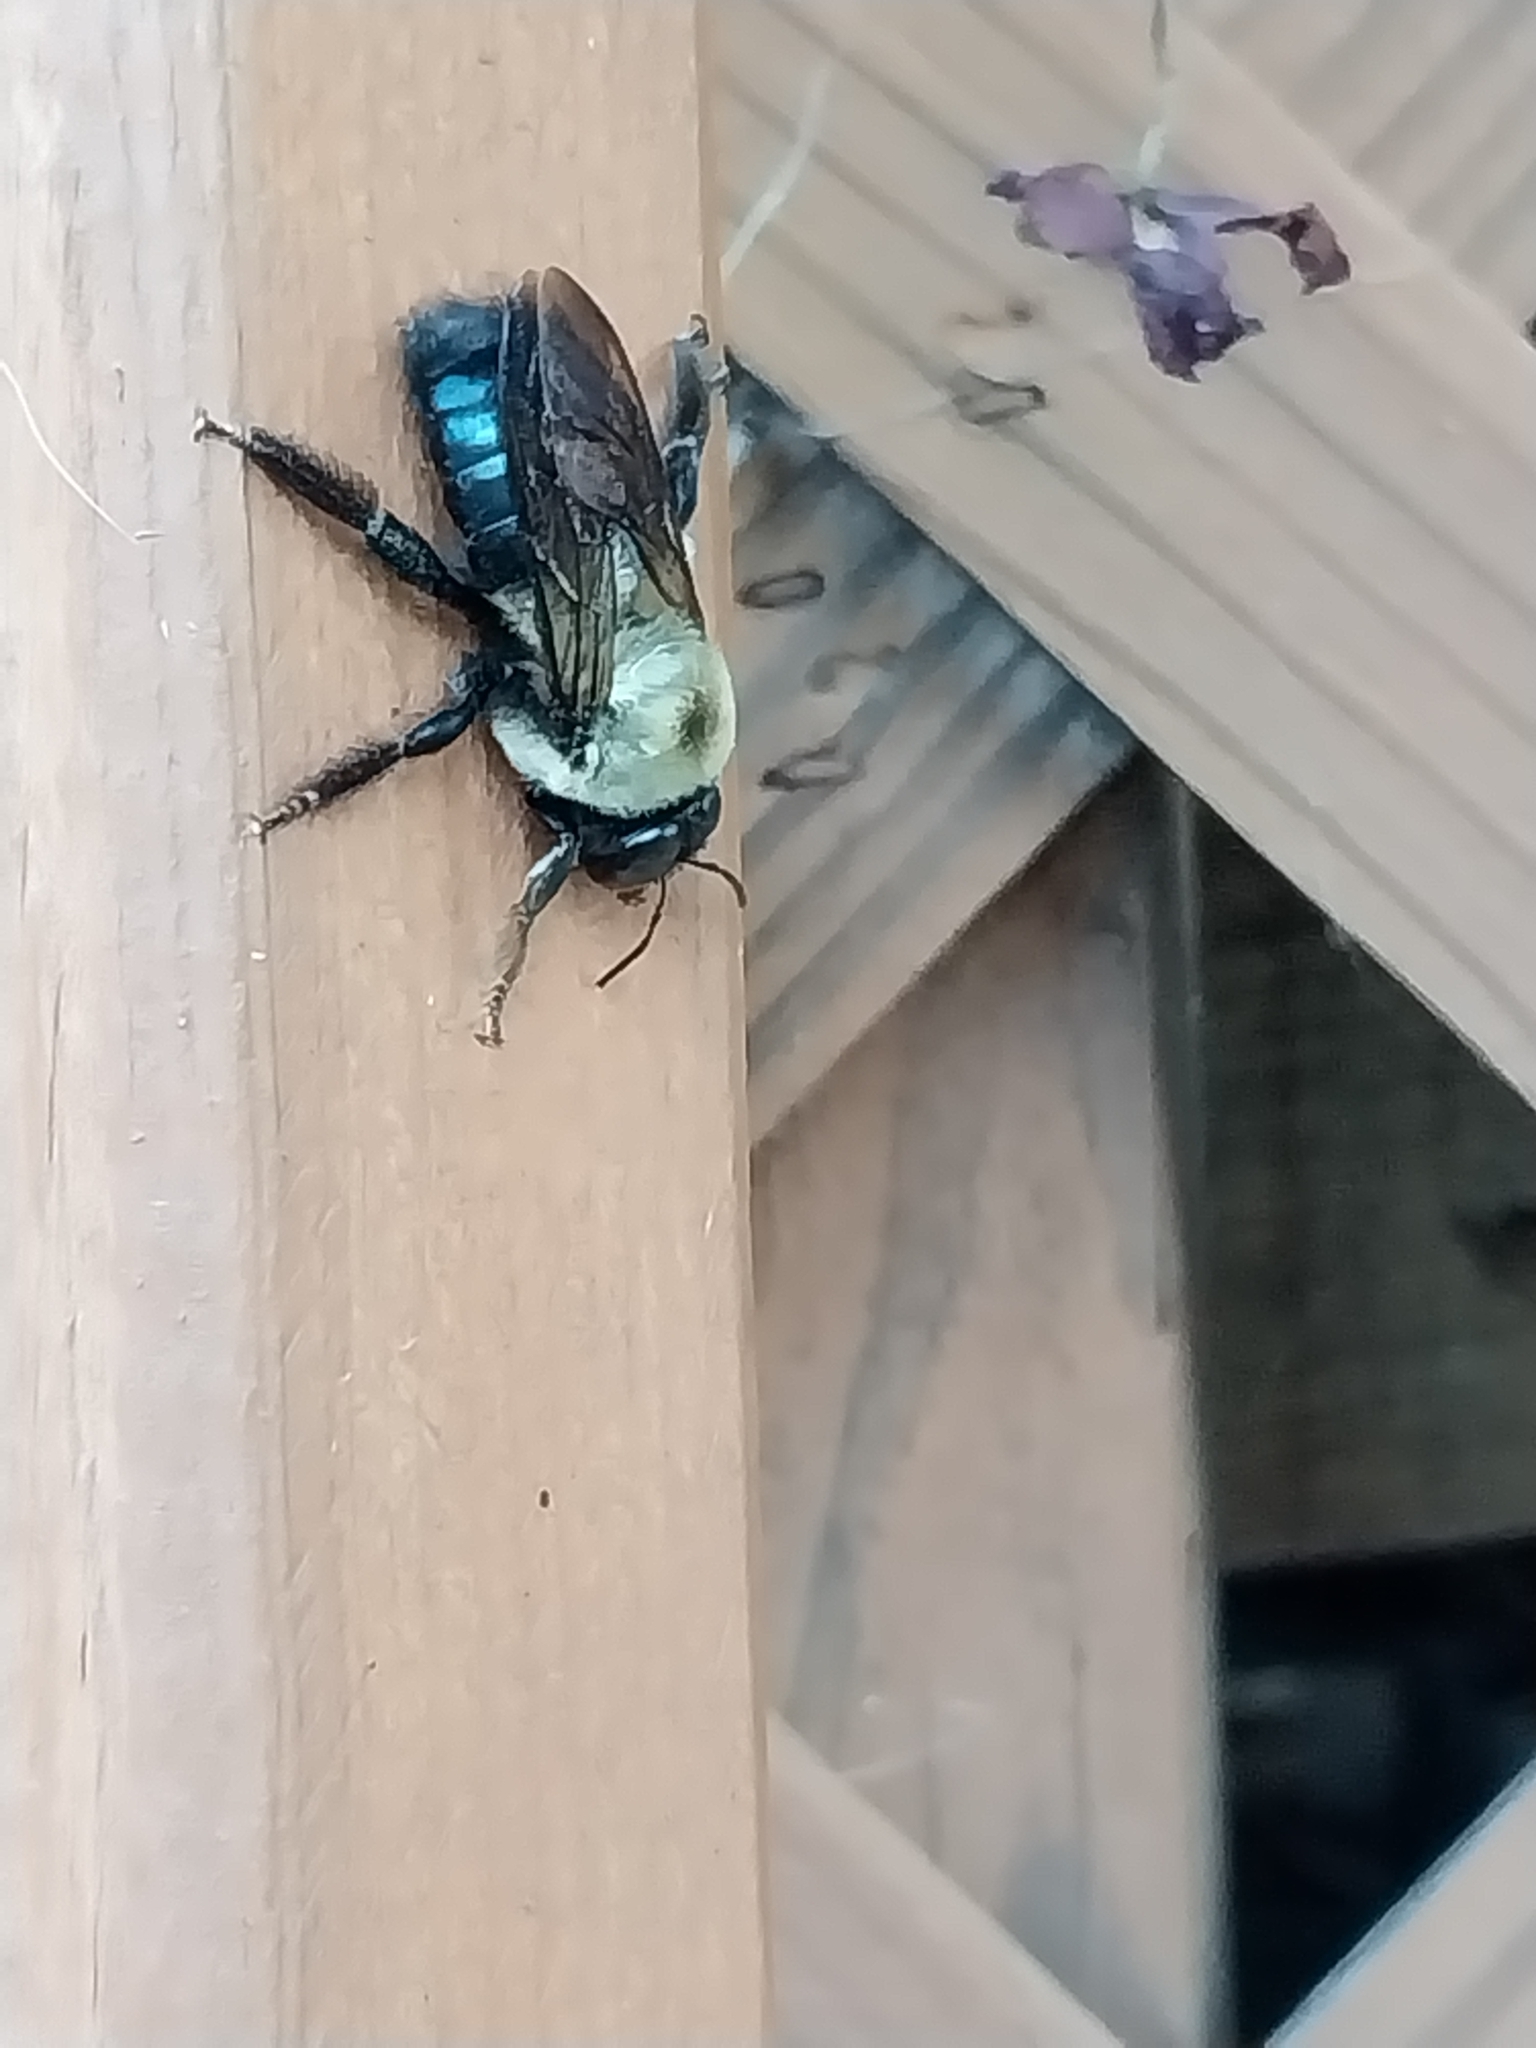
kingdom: Animalia
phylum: Arthropoda
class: Insecta
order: Hymenoptera
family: Apidae
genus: Xylocopa
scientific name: Xylocopa virginica
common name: Carpenter bee
